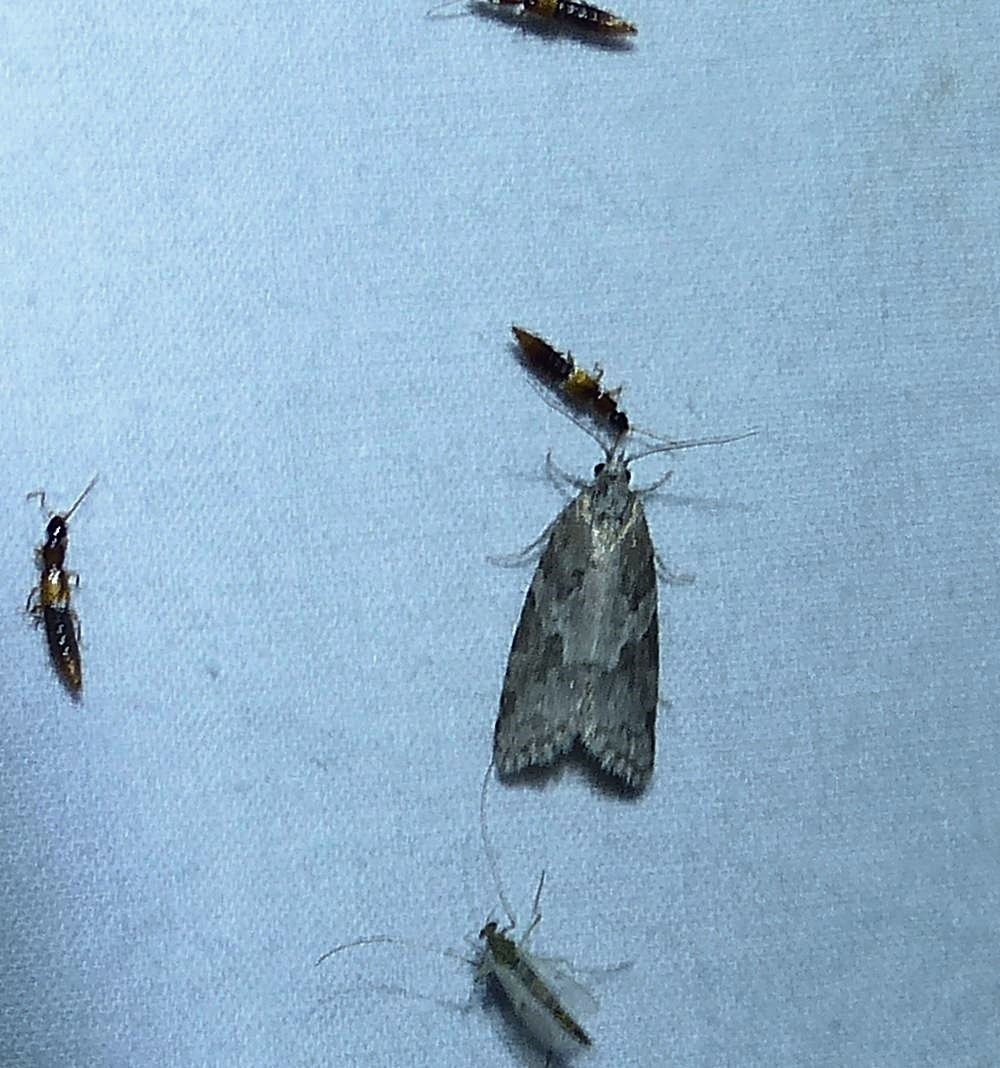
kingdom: Animalia
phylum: Arthropoda
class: Insecta
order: Lepidoptera
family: Tortricidae
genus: Cnephasia
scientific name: Cnephasia stephensiana
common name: Grey tortrix
